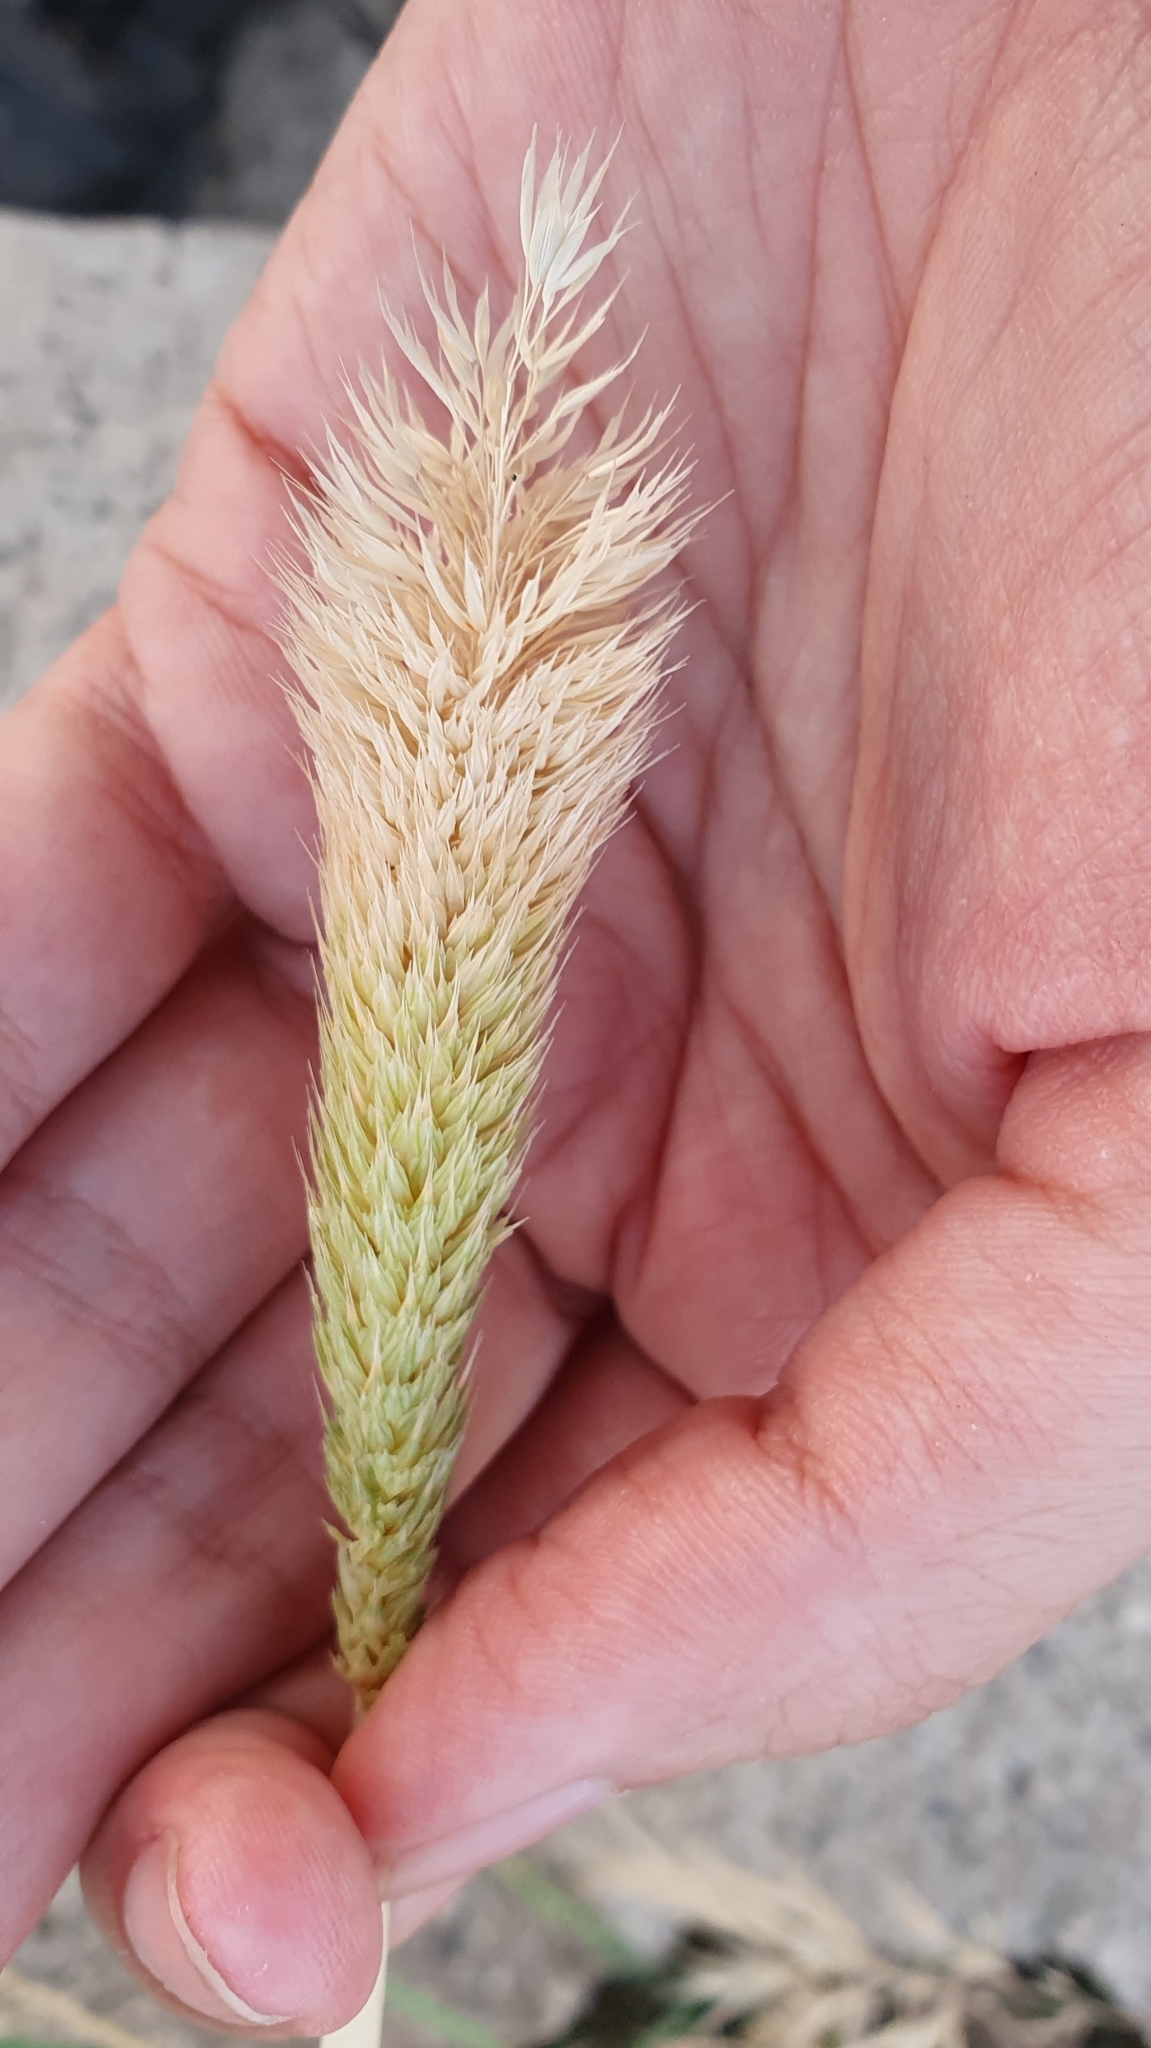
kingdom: Plantae
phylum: Tracheophyta
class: Liliopsida
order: Poales
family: Poaceae
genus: Phalaris
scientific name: Phalaris paradoxa
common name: Awned canary-grass
